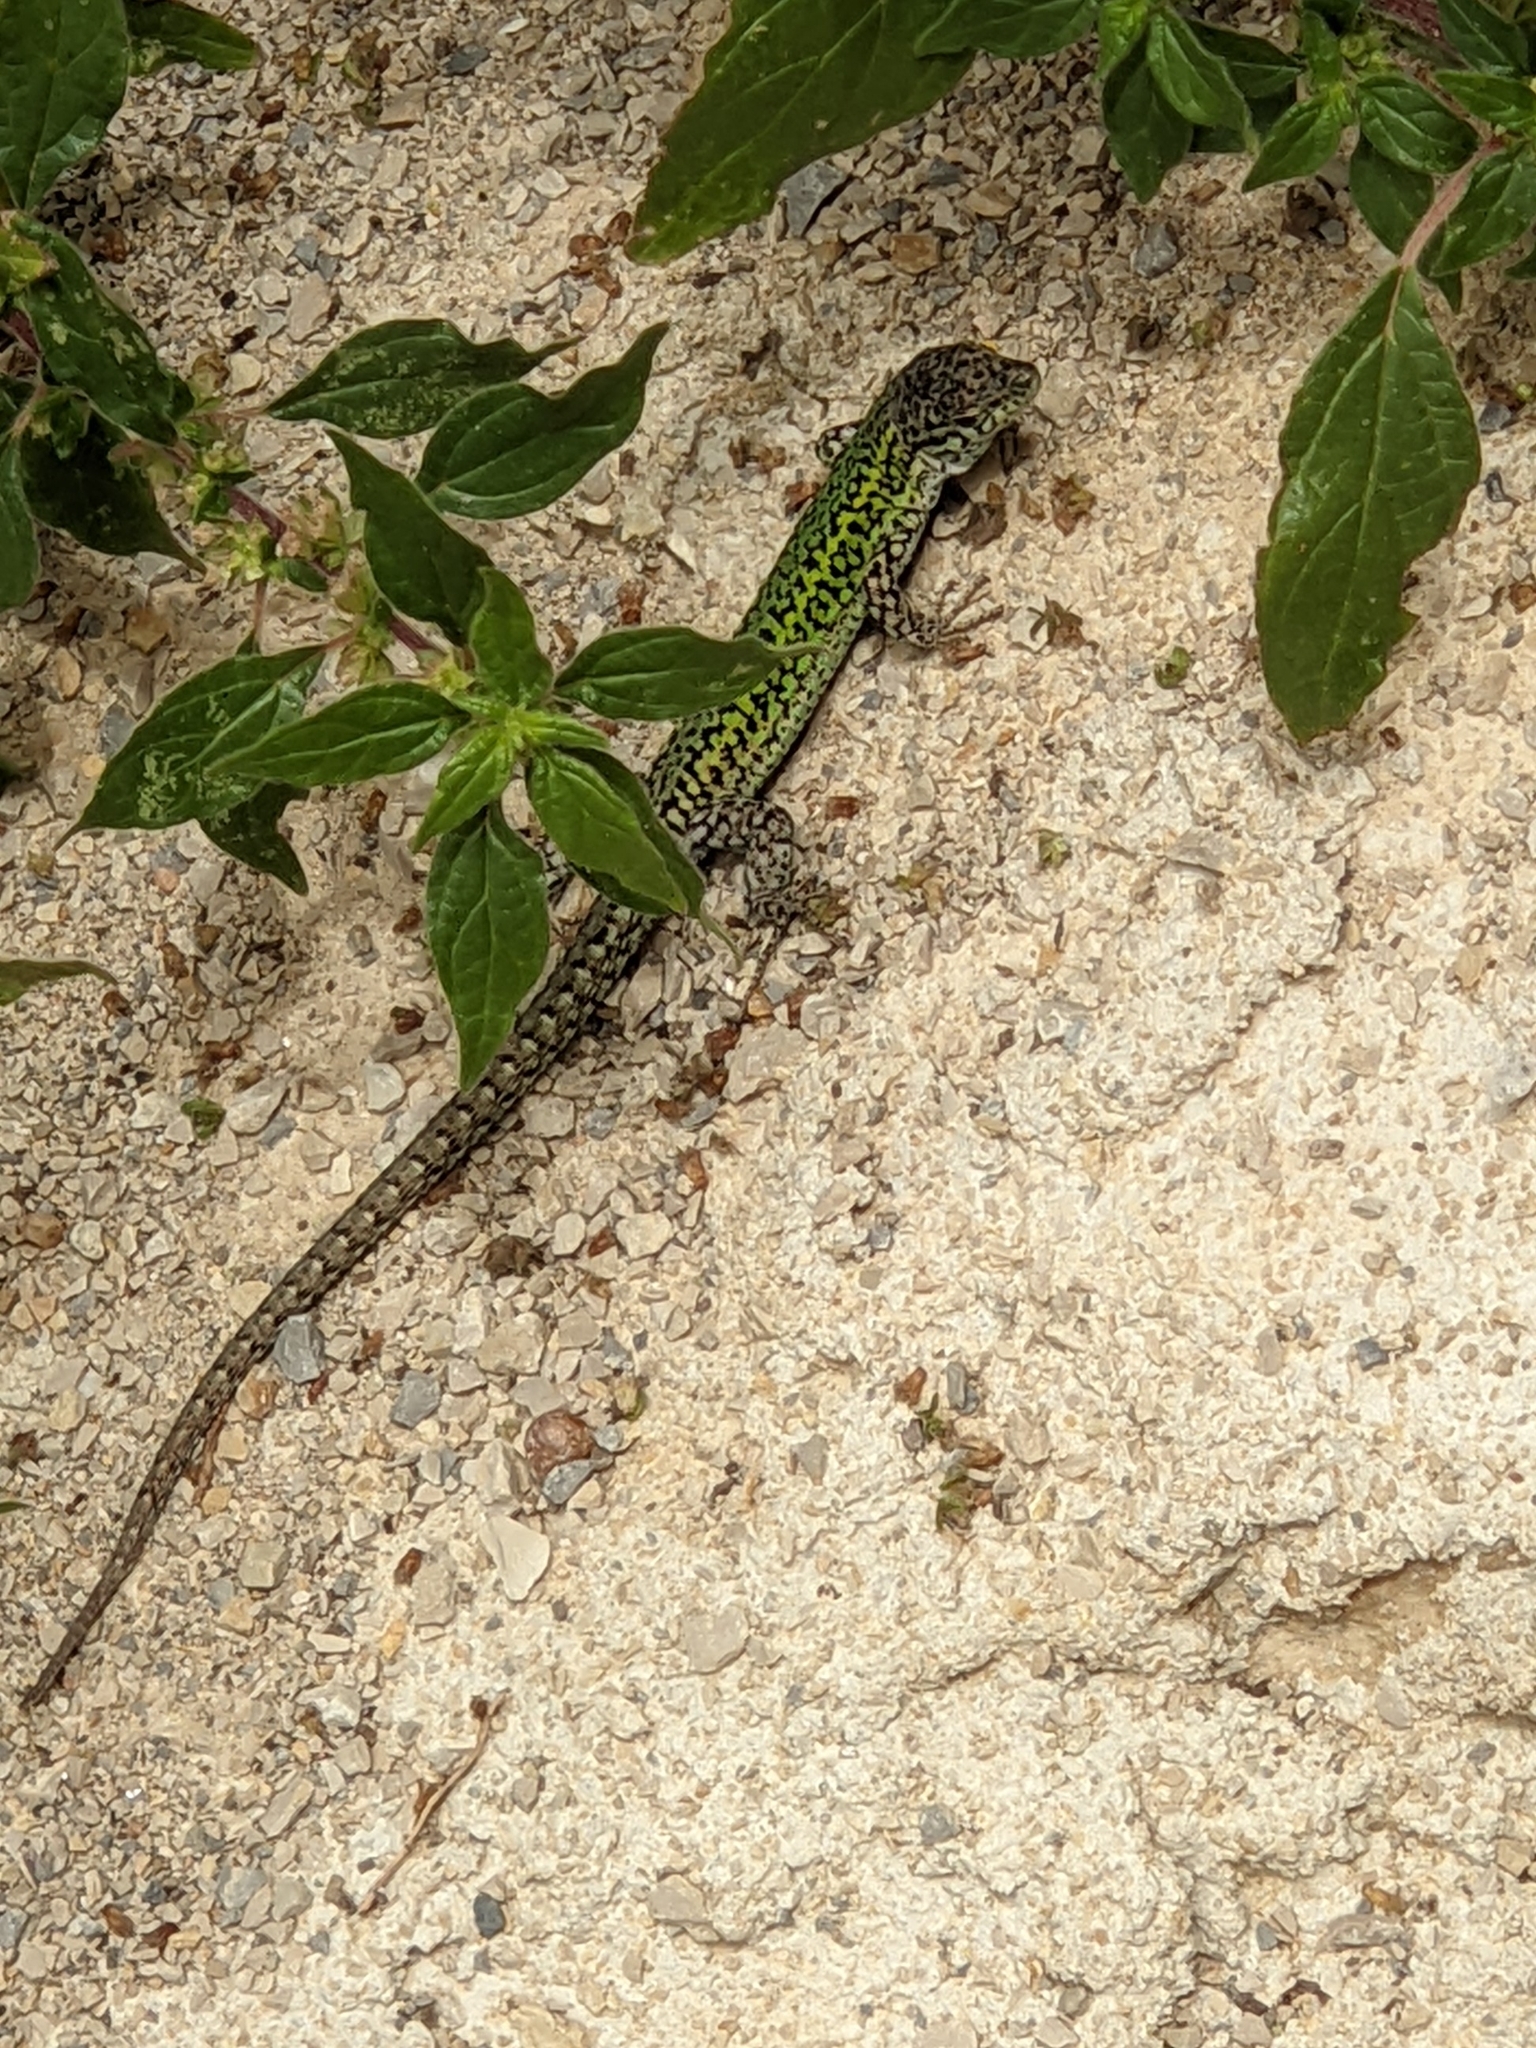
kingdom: Animalia
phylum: Chordata
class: Squamata
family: Lacertidae
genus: Podarcis
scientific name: Podarcis carbonelli
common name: Carbonelli's wall lizard
